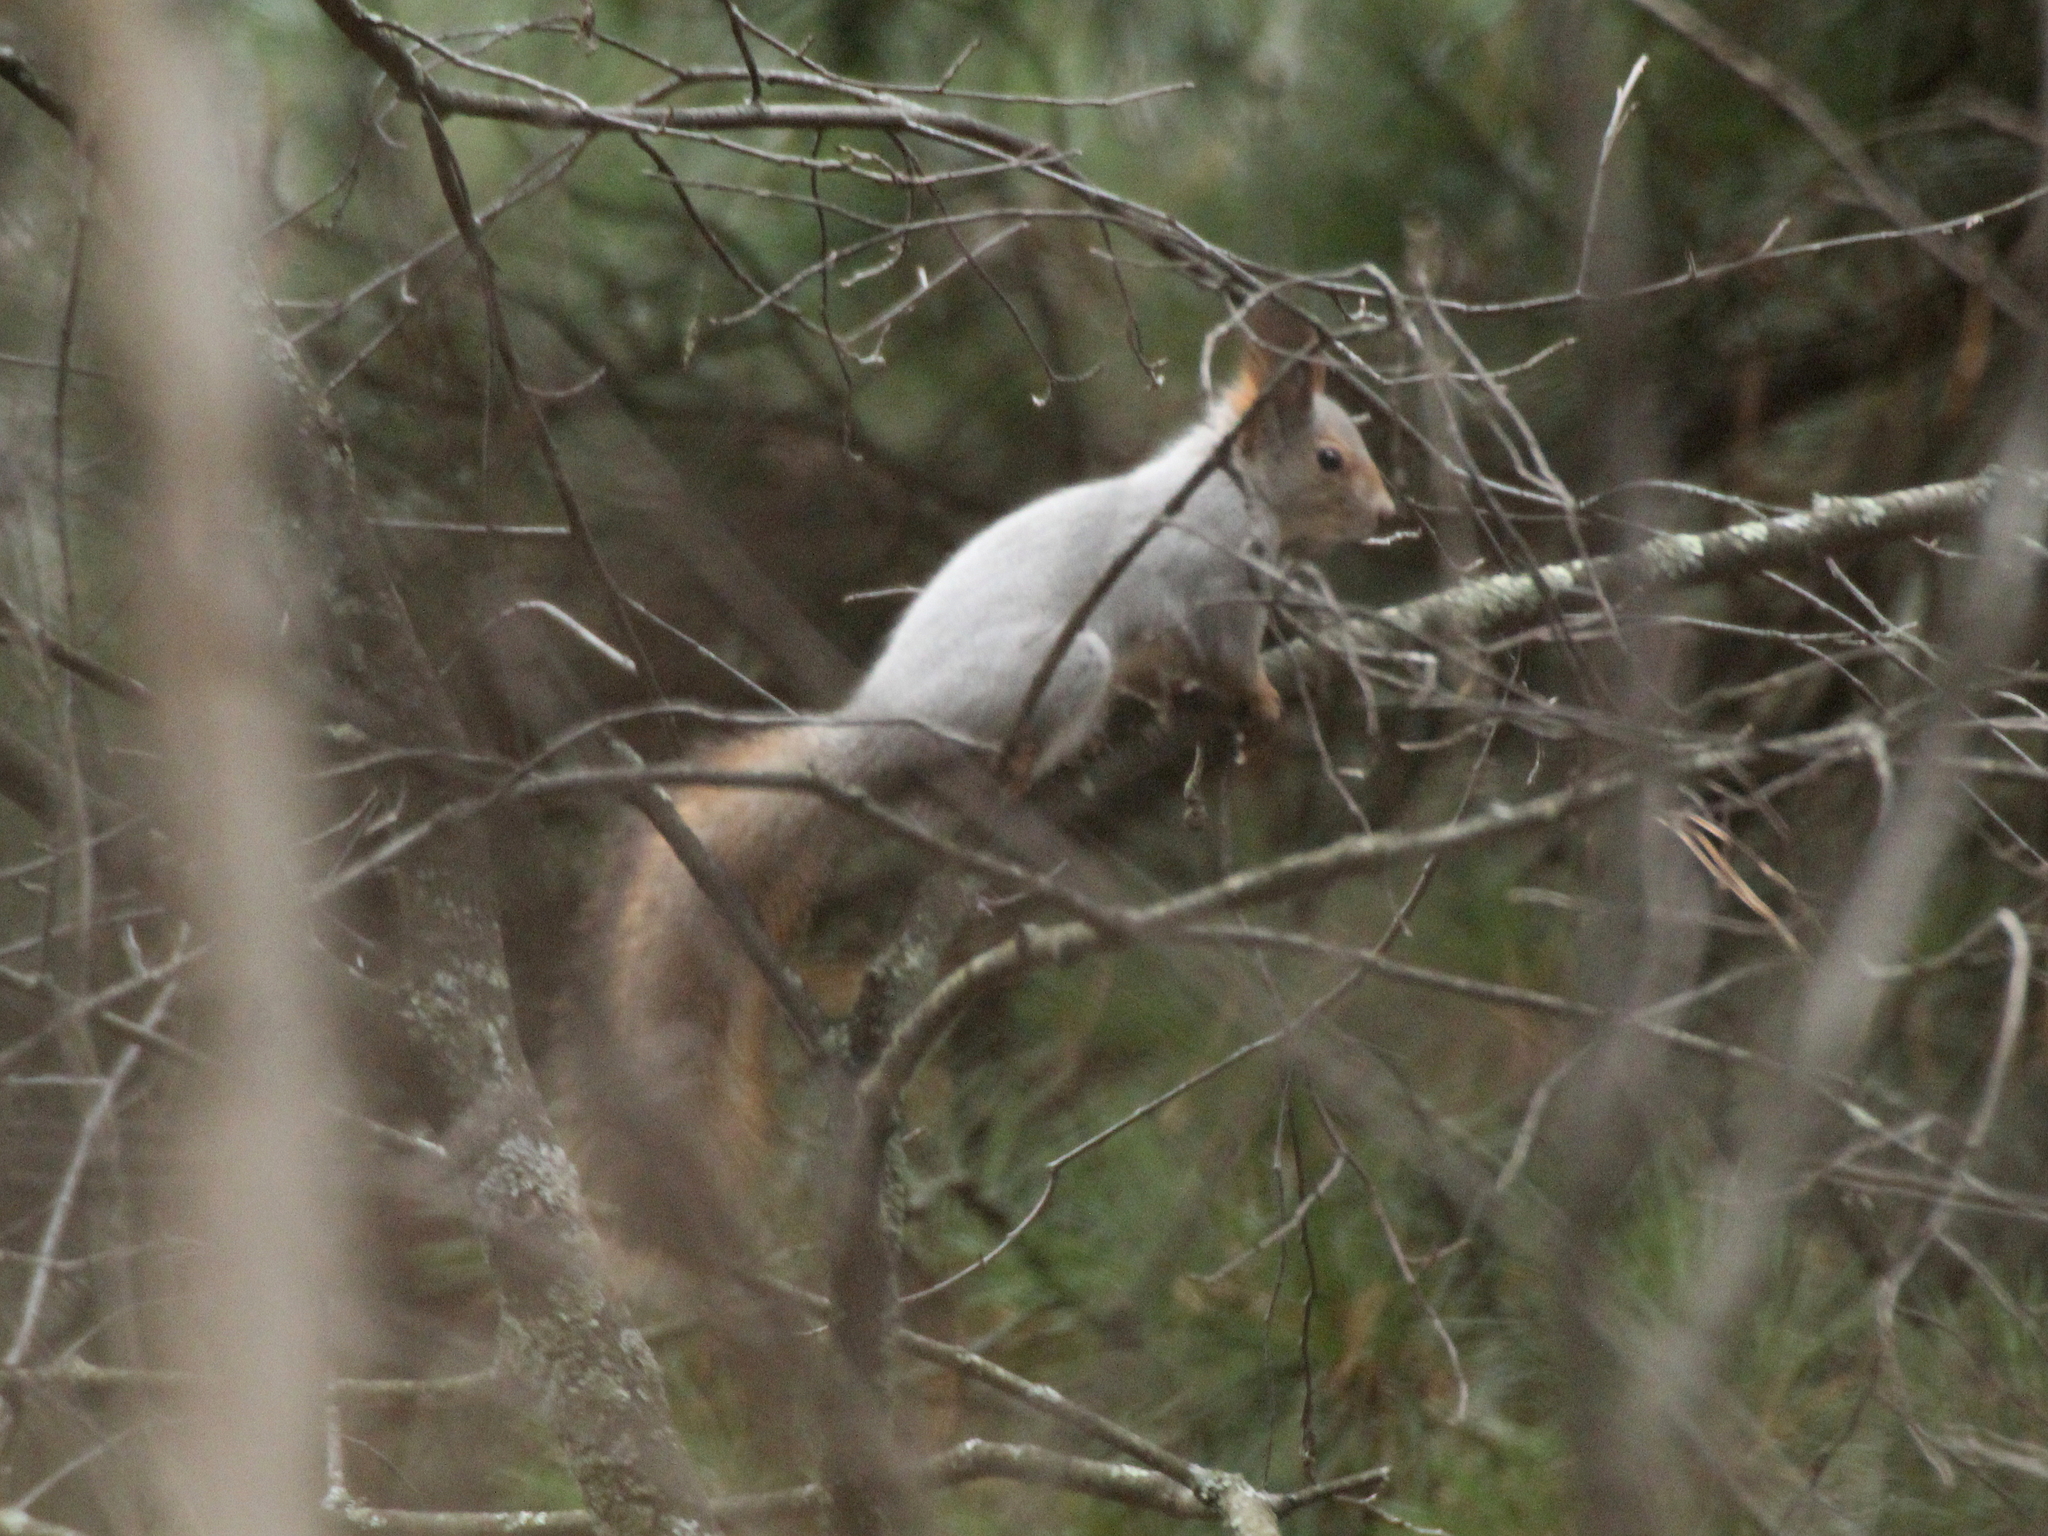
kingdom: Animalia
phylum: Chordata
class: Mammalia
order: Rodentia
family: Sciuridae
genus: Sciurus
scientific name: Sciurus vulgaris
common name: Eurasian red squirrel
